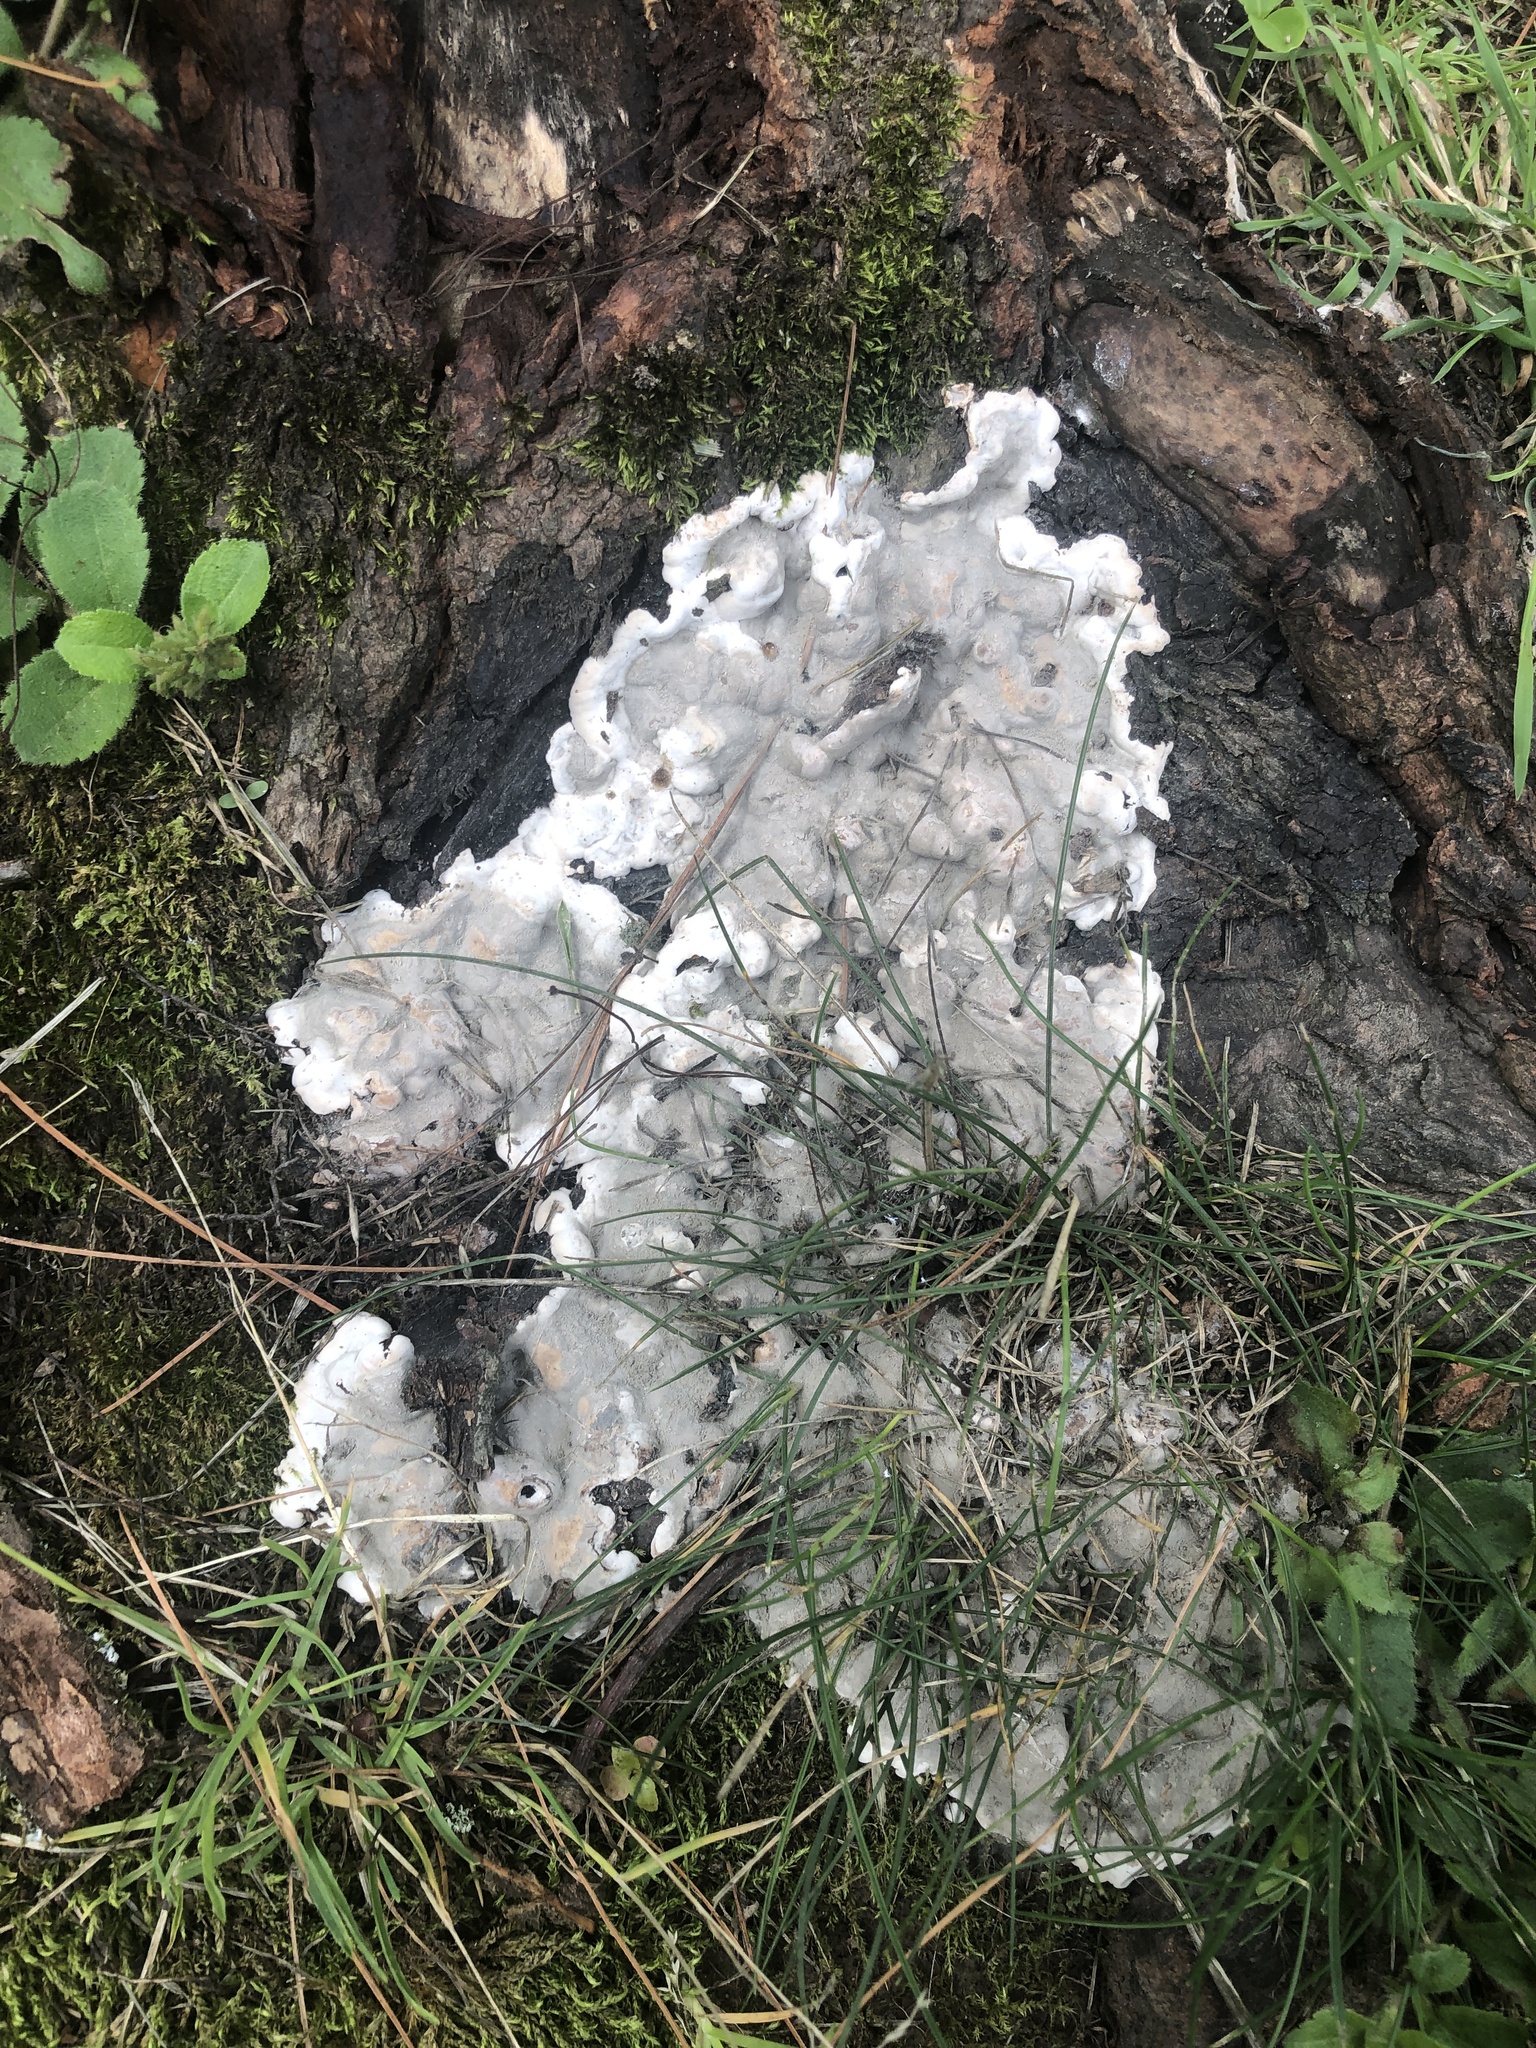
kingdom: Fungi
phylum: Ascomycota
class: Sordariomycetes
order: Xylariales
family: Xylariaceae
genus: Kretzschmaria
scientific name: Kretzschmaria deusta
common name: Brittle cinder
